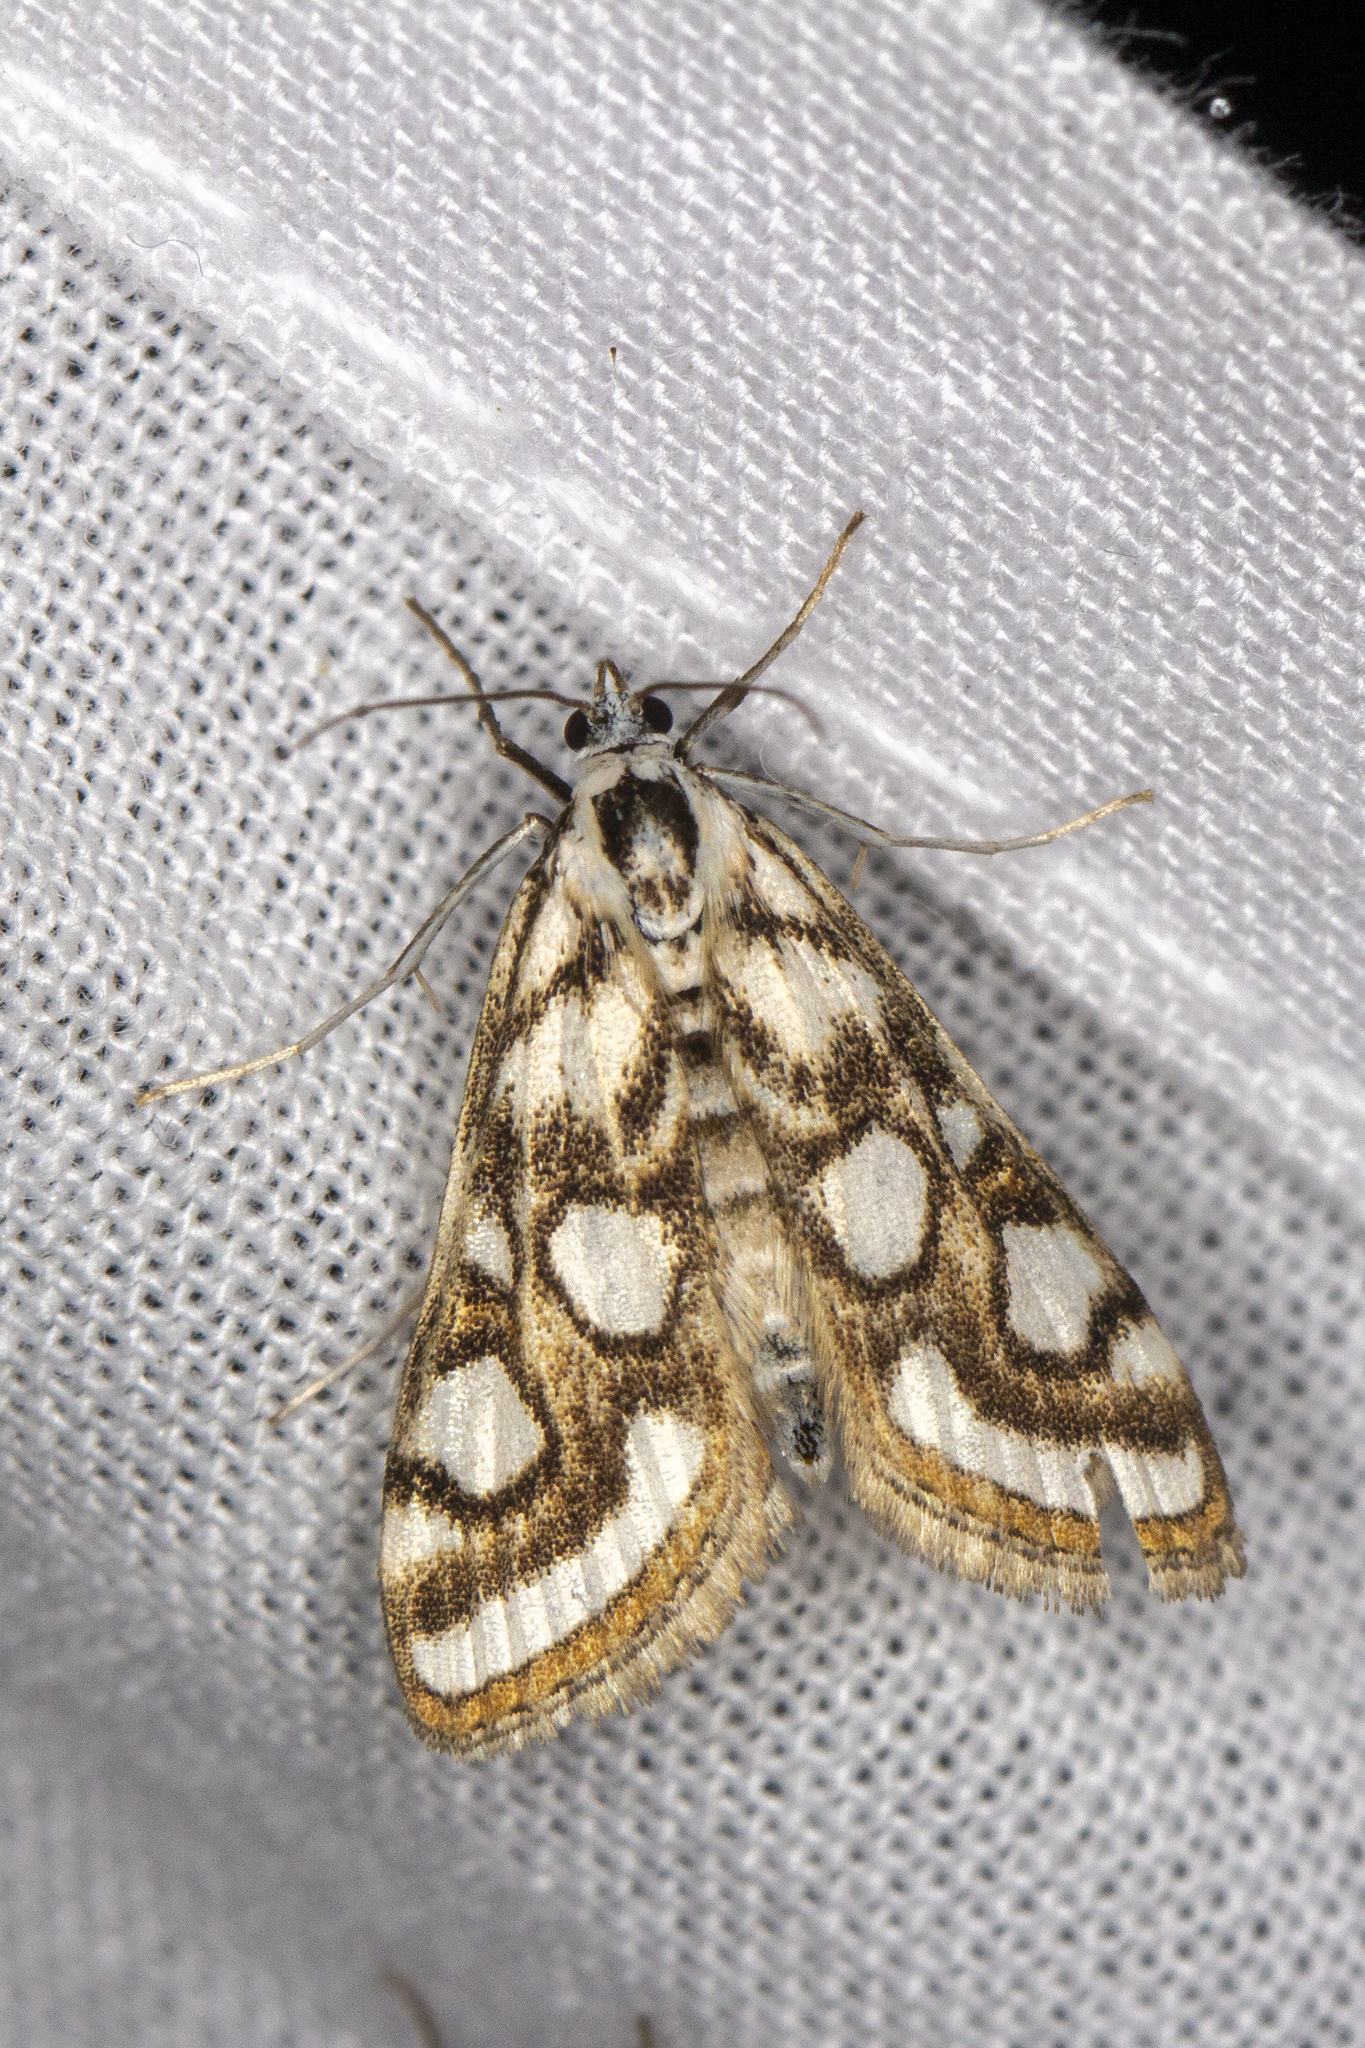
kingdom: Animalia
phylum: Arthropoda
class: Insecta
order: Lepidoptera
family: Crambidae
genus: Nymphula
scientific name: Nymphula nitidulata
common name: Beautiful china mark
